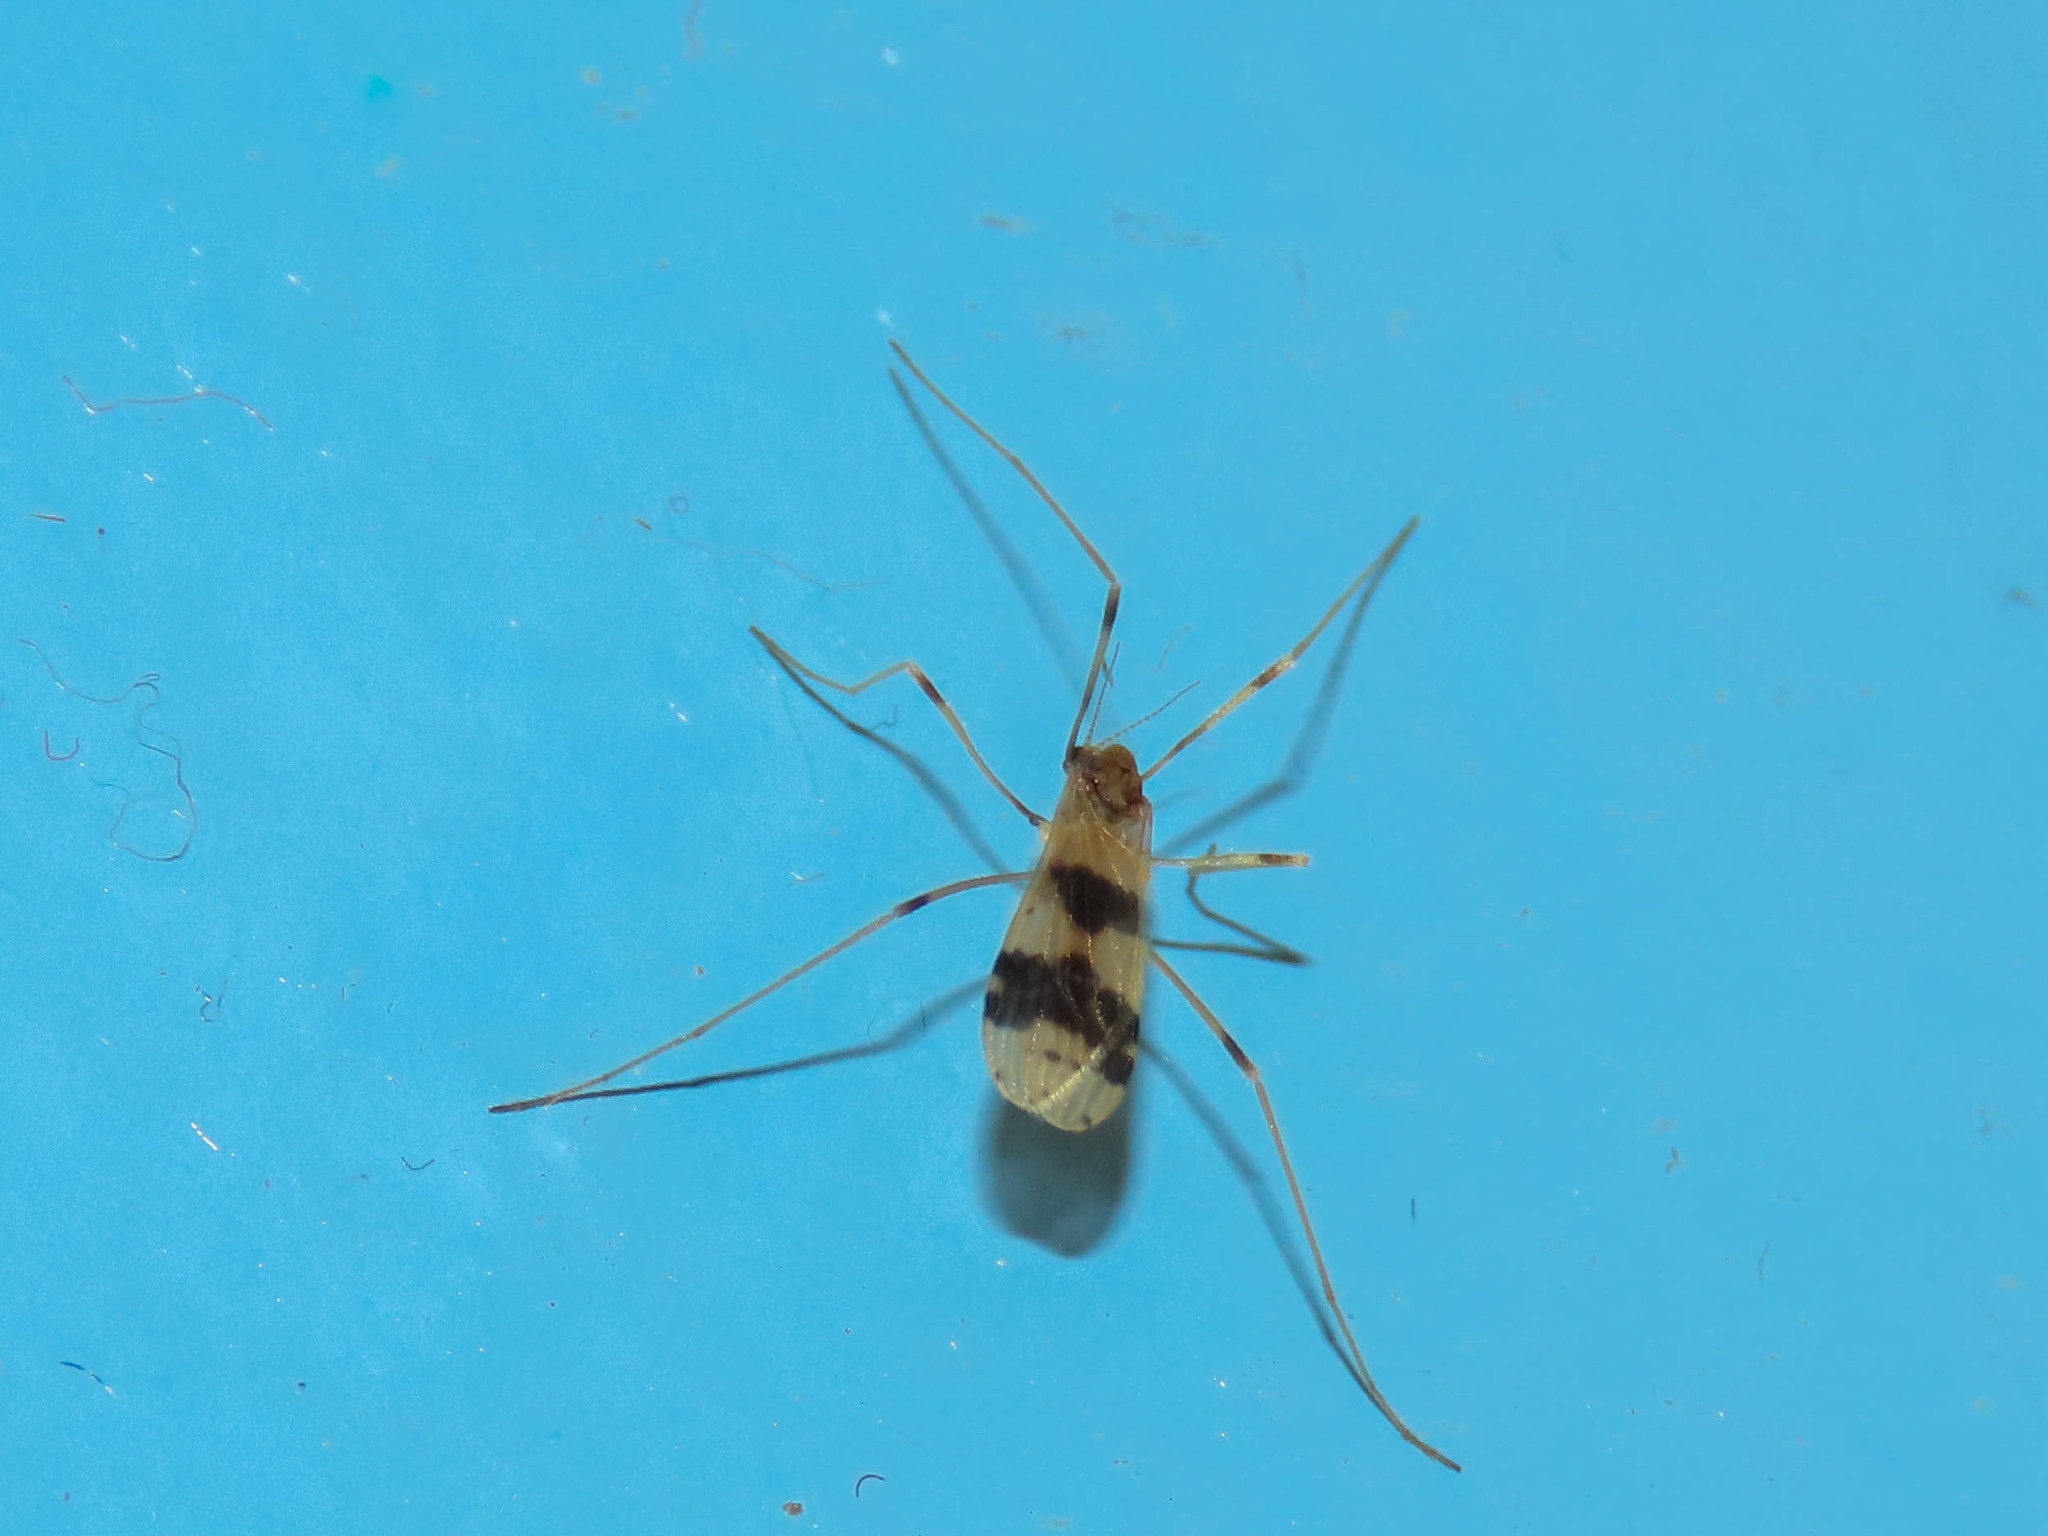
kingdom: Animalia
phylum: Arthropoda
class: Insecta
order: Diptera
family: Limoniidae
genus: Ilisia
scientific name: Ilisia venusta
